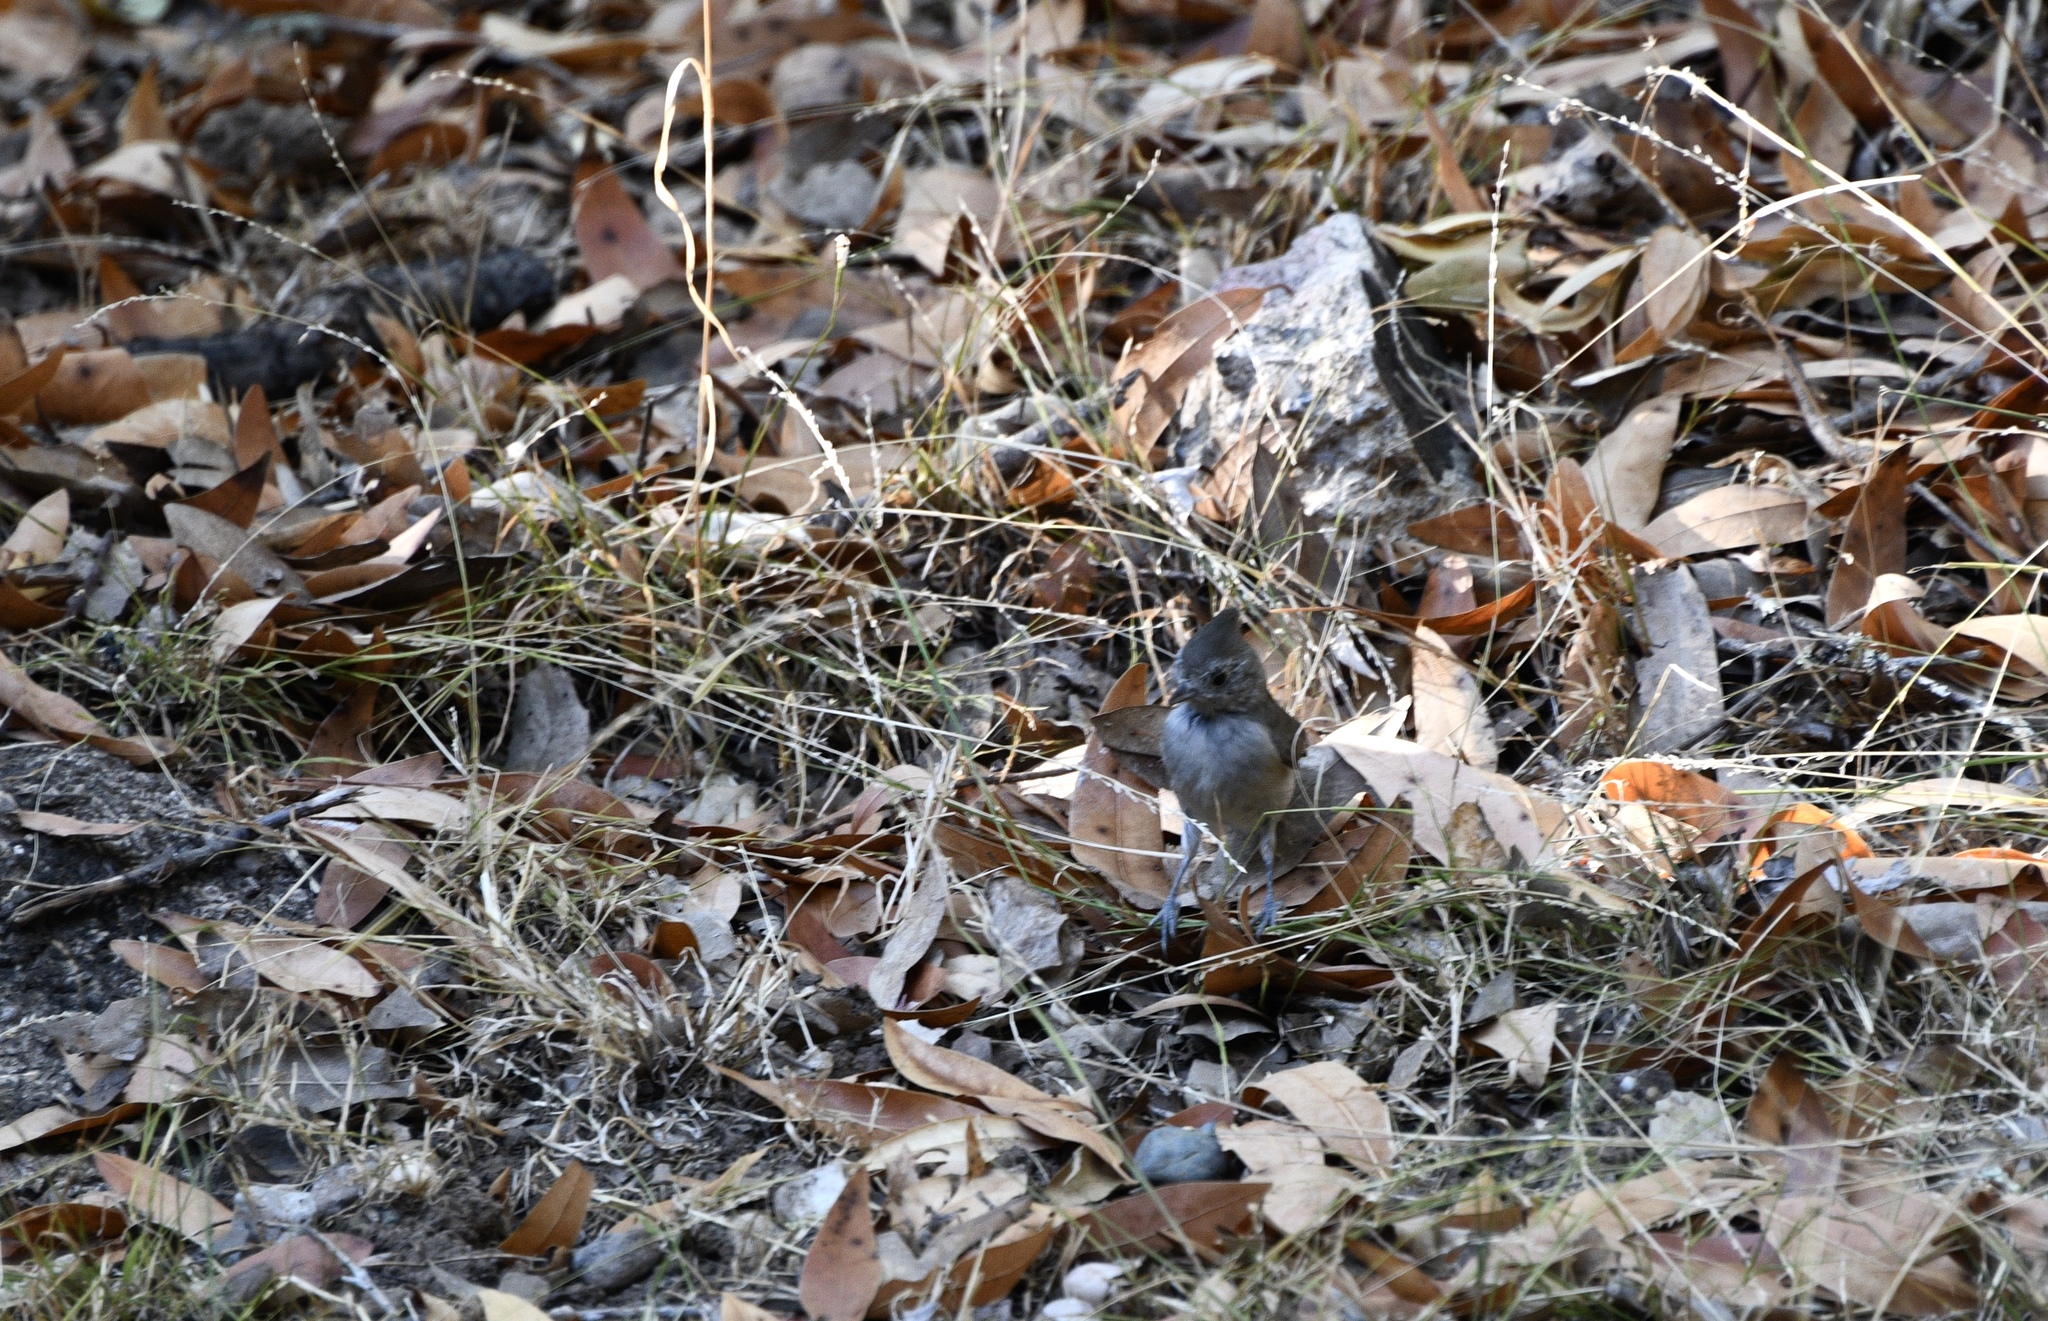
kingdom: Animalia
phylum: Chordata
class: Aves
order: Passeriformes
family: Paridae
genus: Baeolophus
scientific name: Baeolophus inornatus
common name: Oak titmouse
